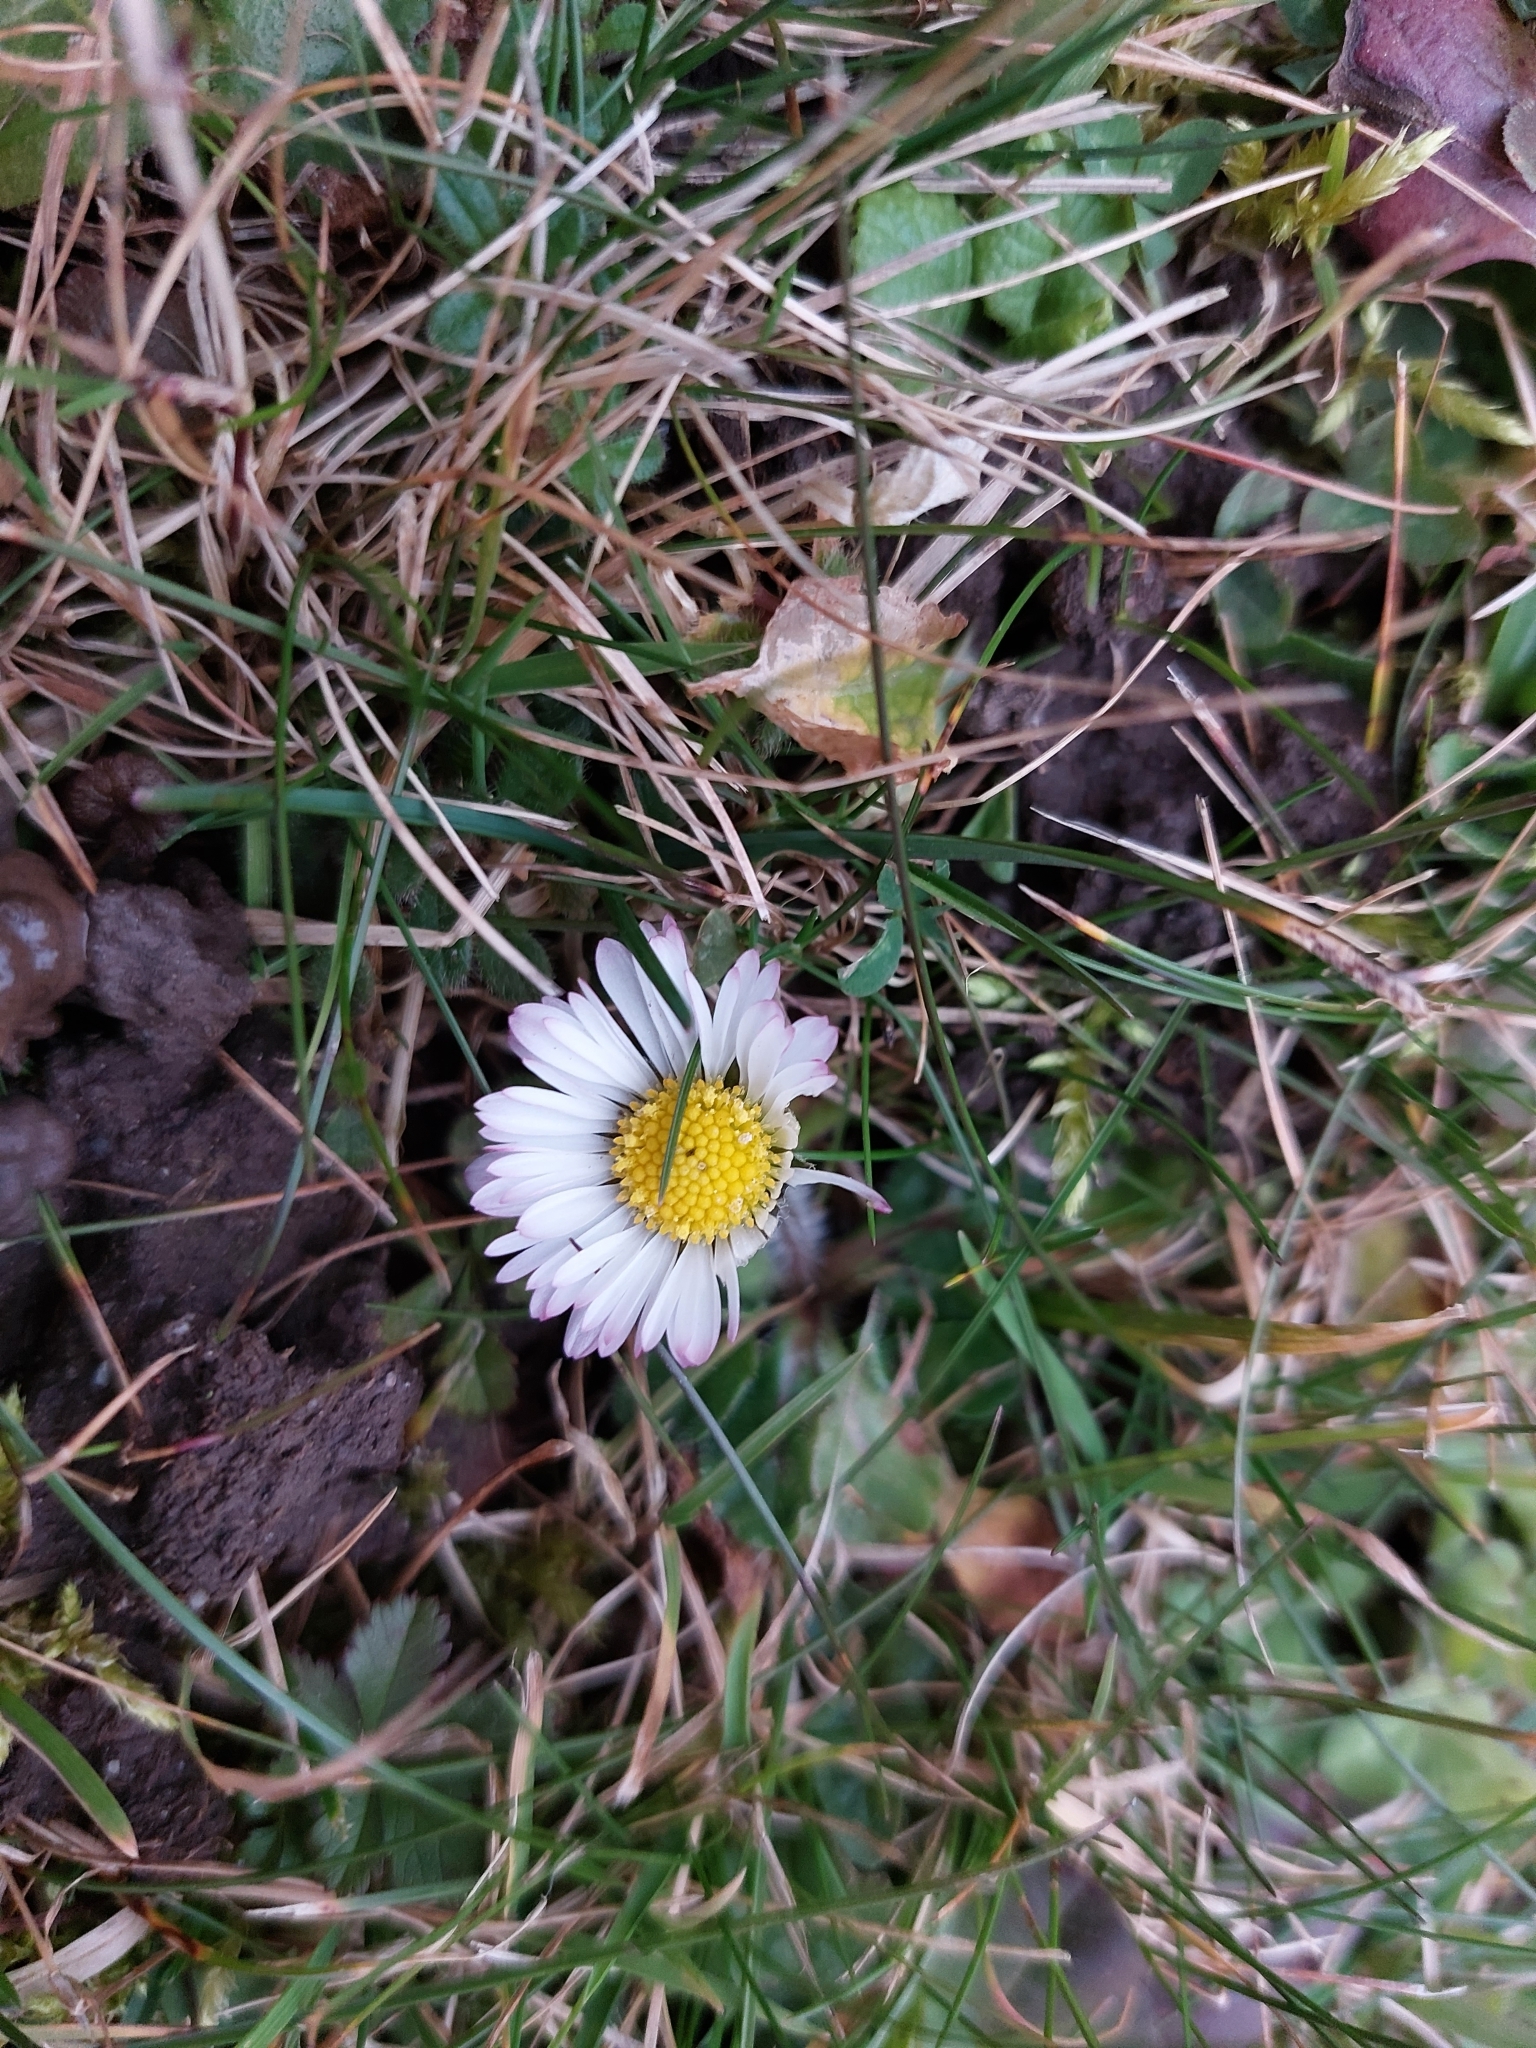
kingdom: Plantae
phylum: Tracheophyta
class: Magnoliopsida
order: Asterales
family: Asteraceae
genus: Bellis
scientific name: Bellis perennis
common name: Lawndaisy
